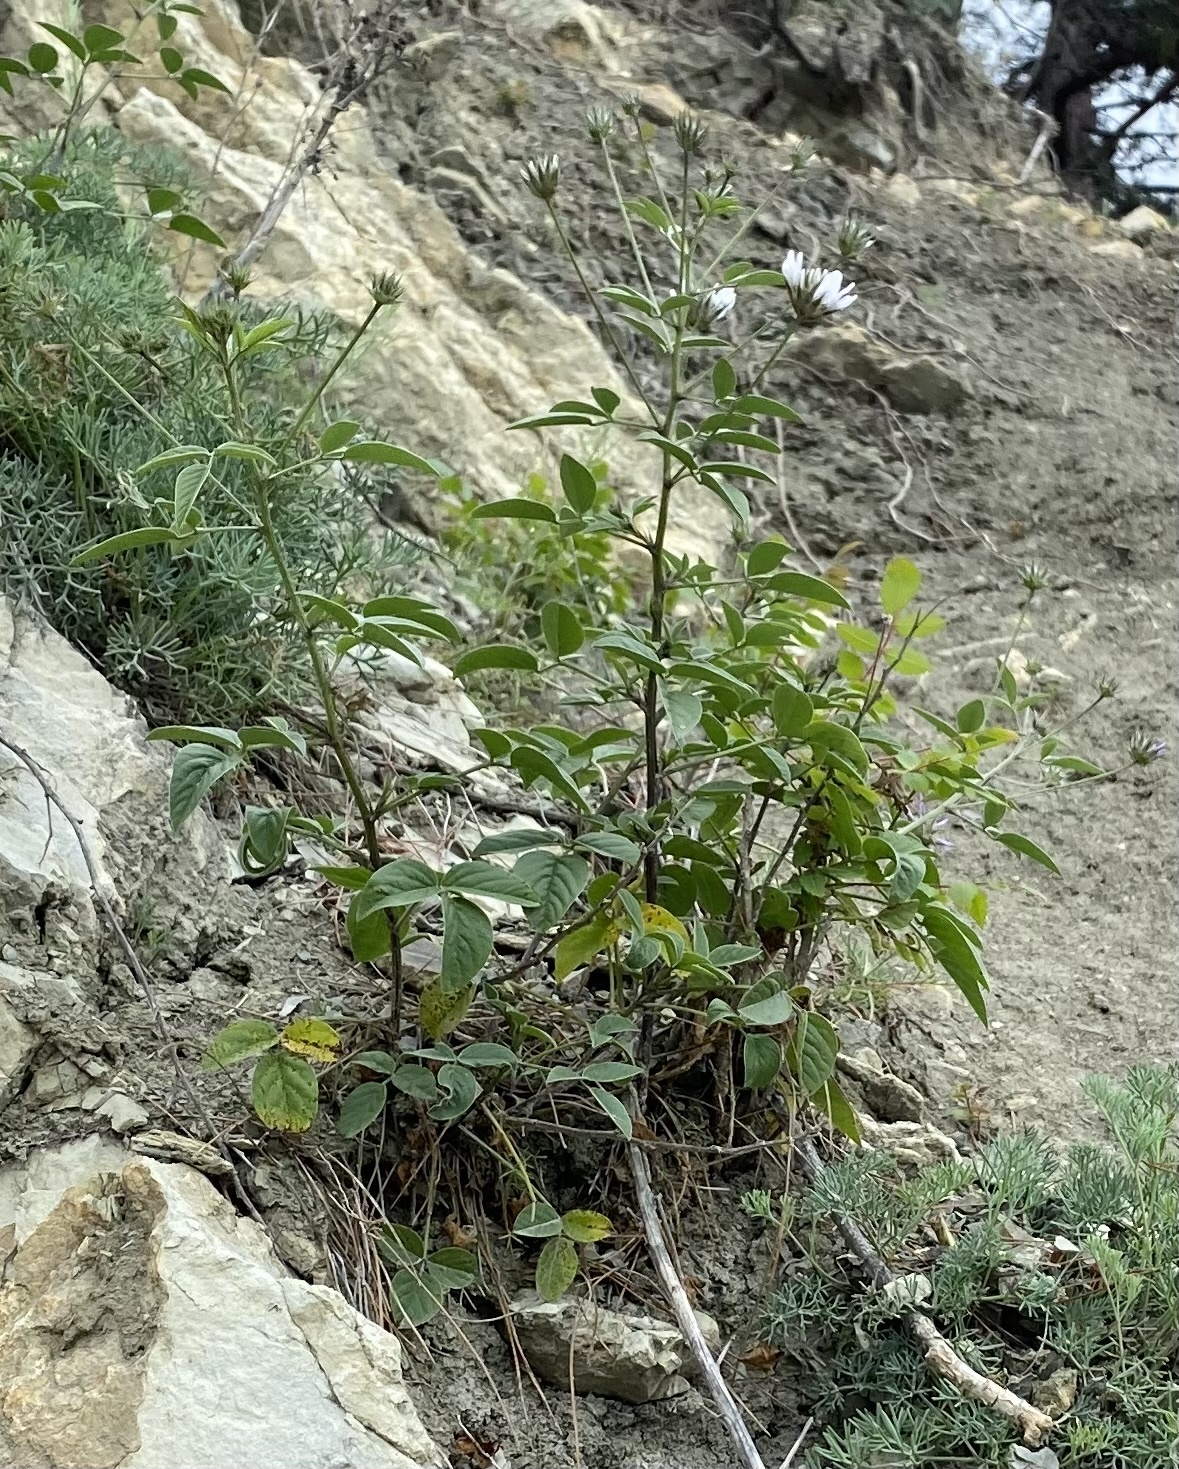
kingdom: Plantae
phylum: Tracheophyta
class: Magnoliopsida
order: Fabales
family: Fabaceae
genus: Bituminaria
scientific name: Bituminaria bituminosa
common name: Arabian pea
